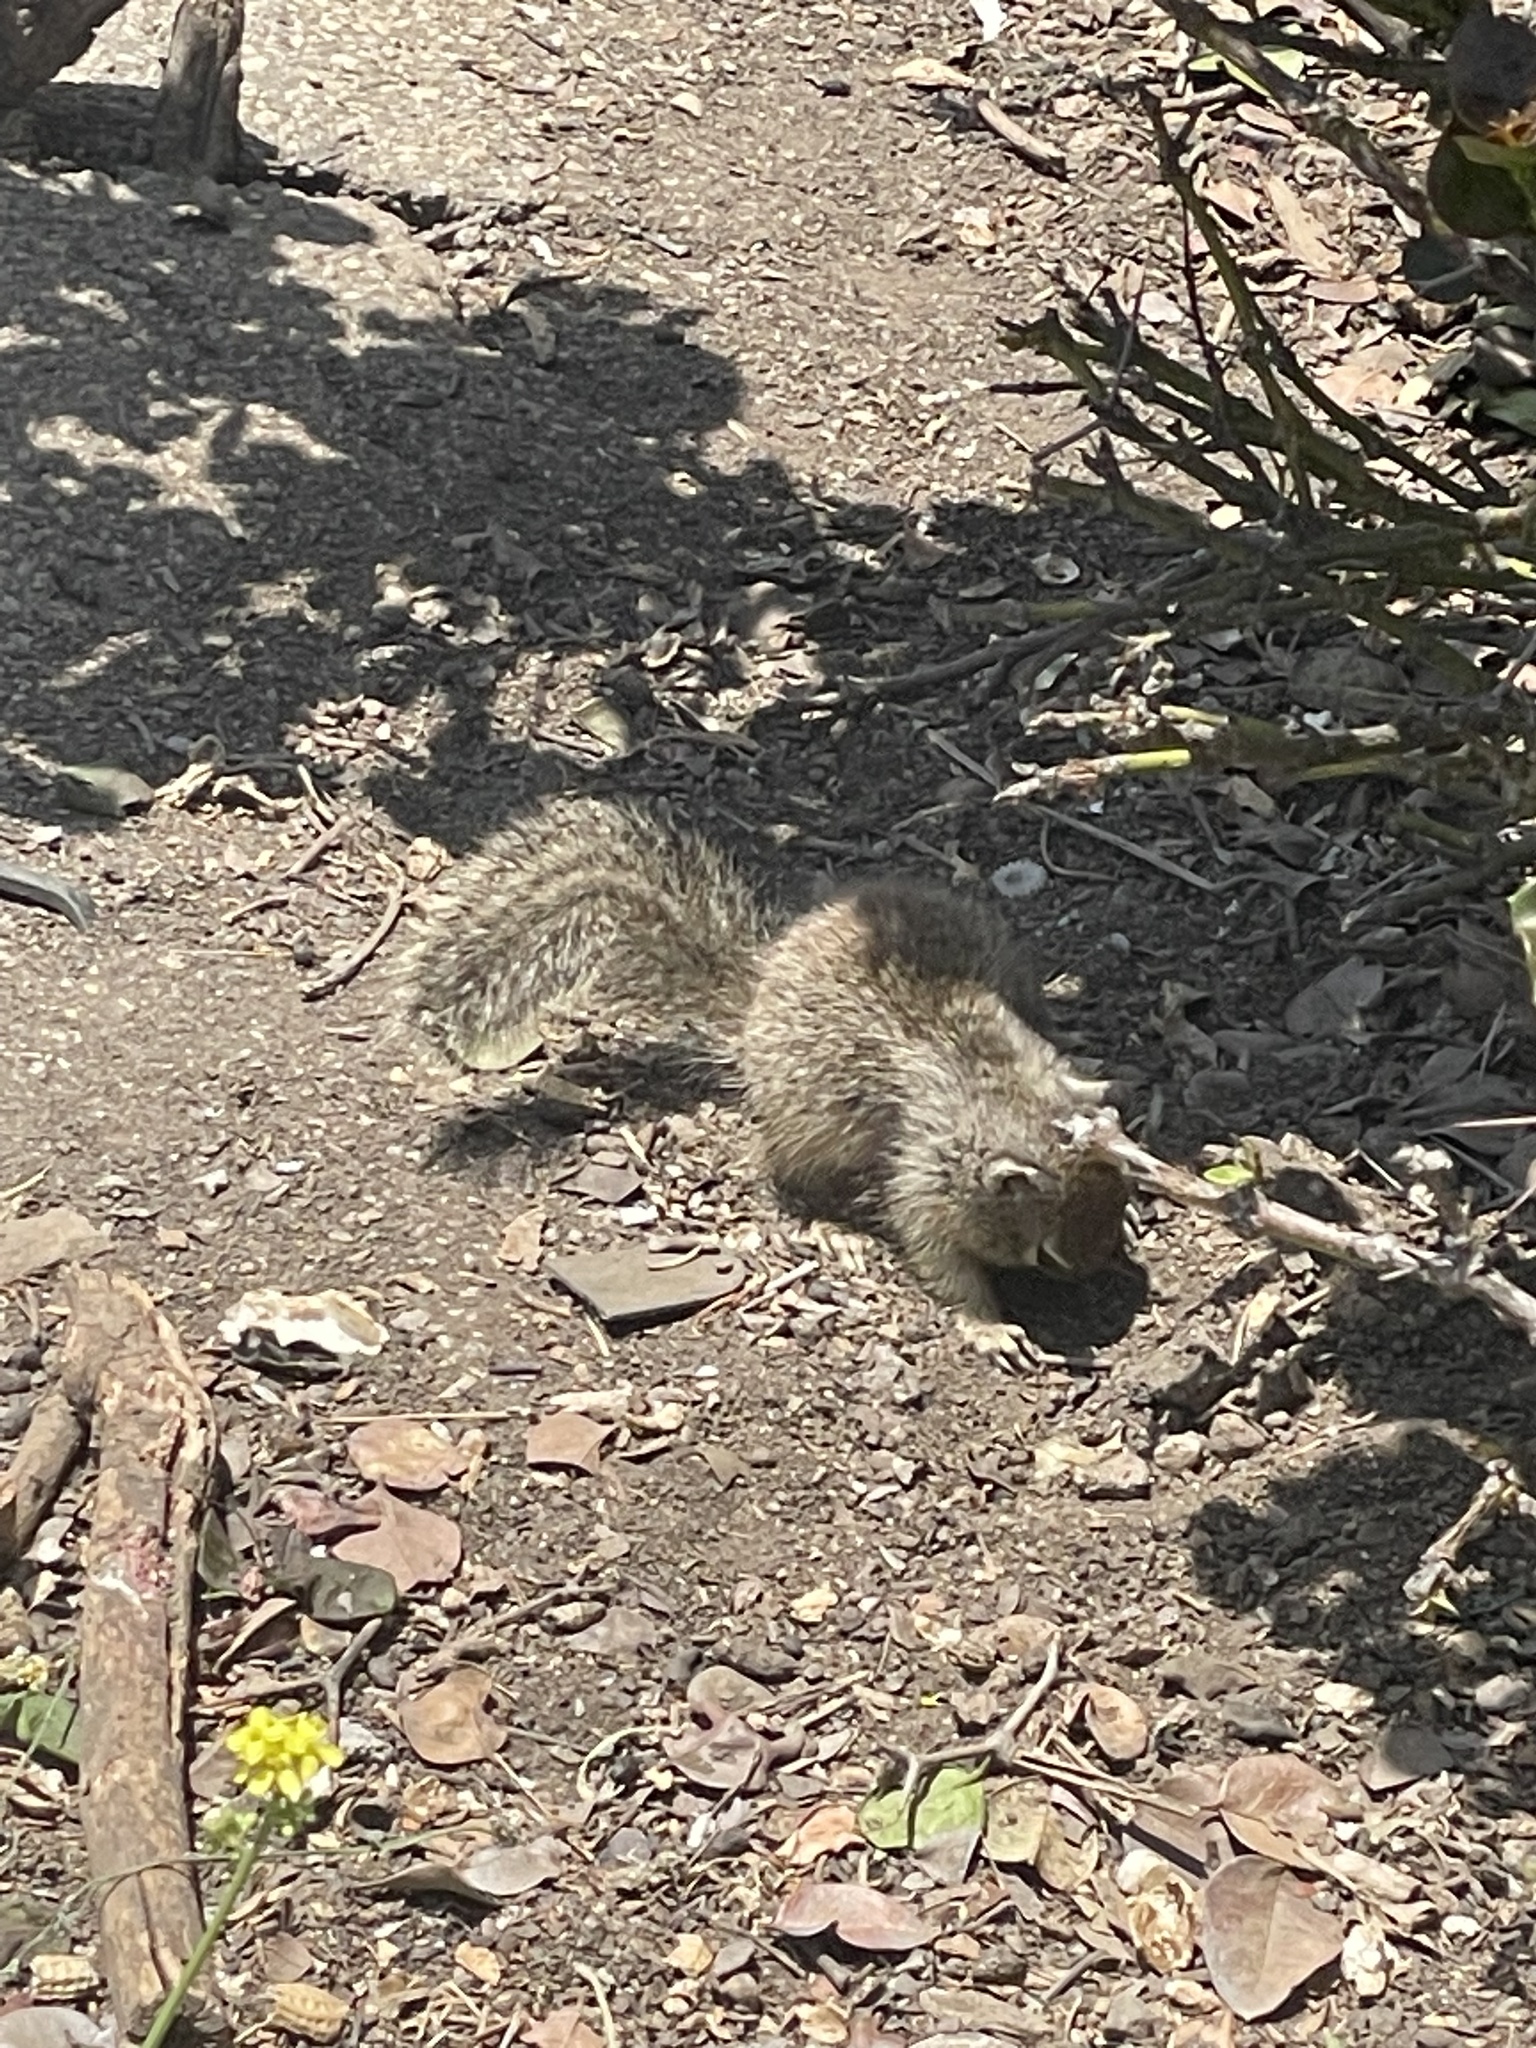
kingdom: Animalia
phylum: Chordata
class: Mammalia
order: Rodentia
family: Sciuridae
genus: Otospermophilus
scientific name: Otospermophilus beecheyi
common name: California ground squirrel
